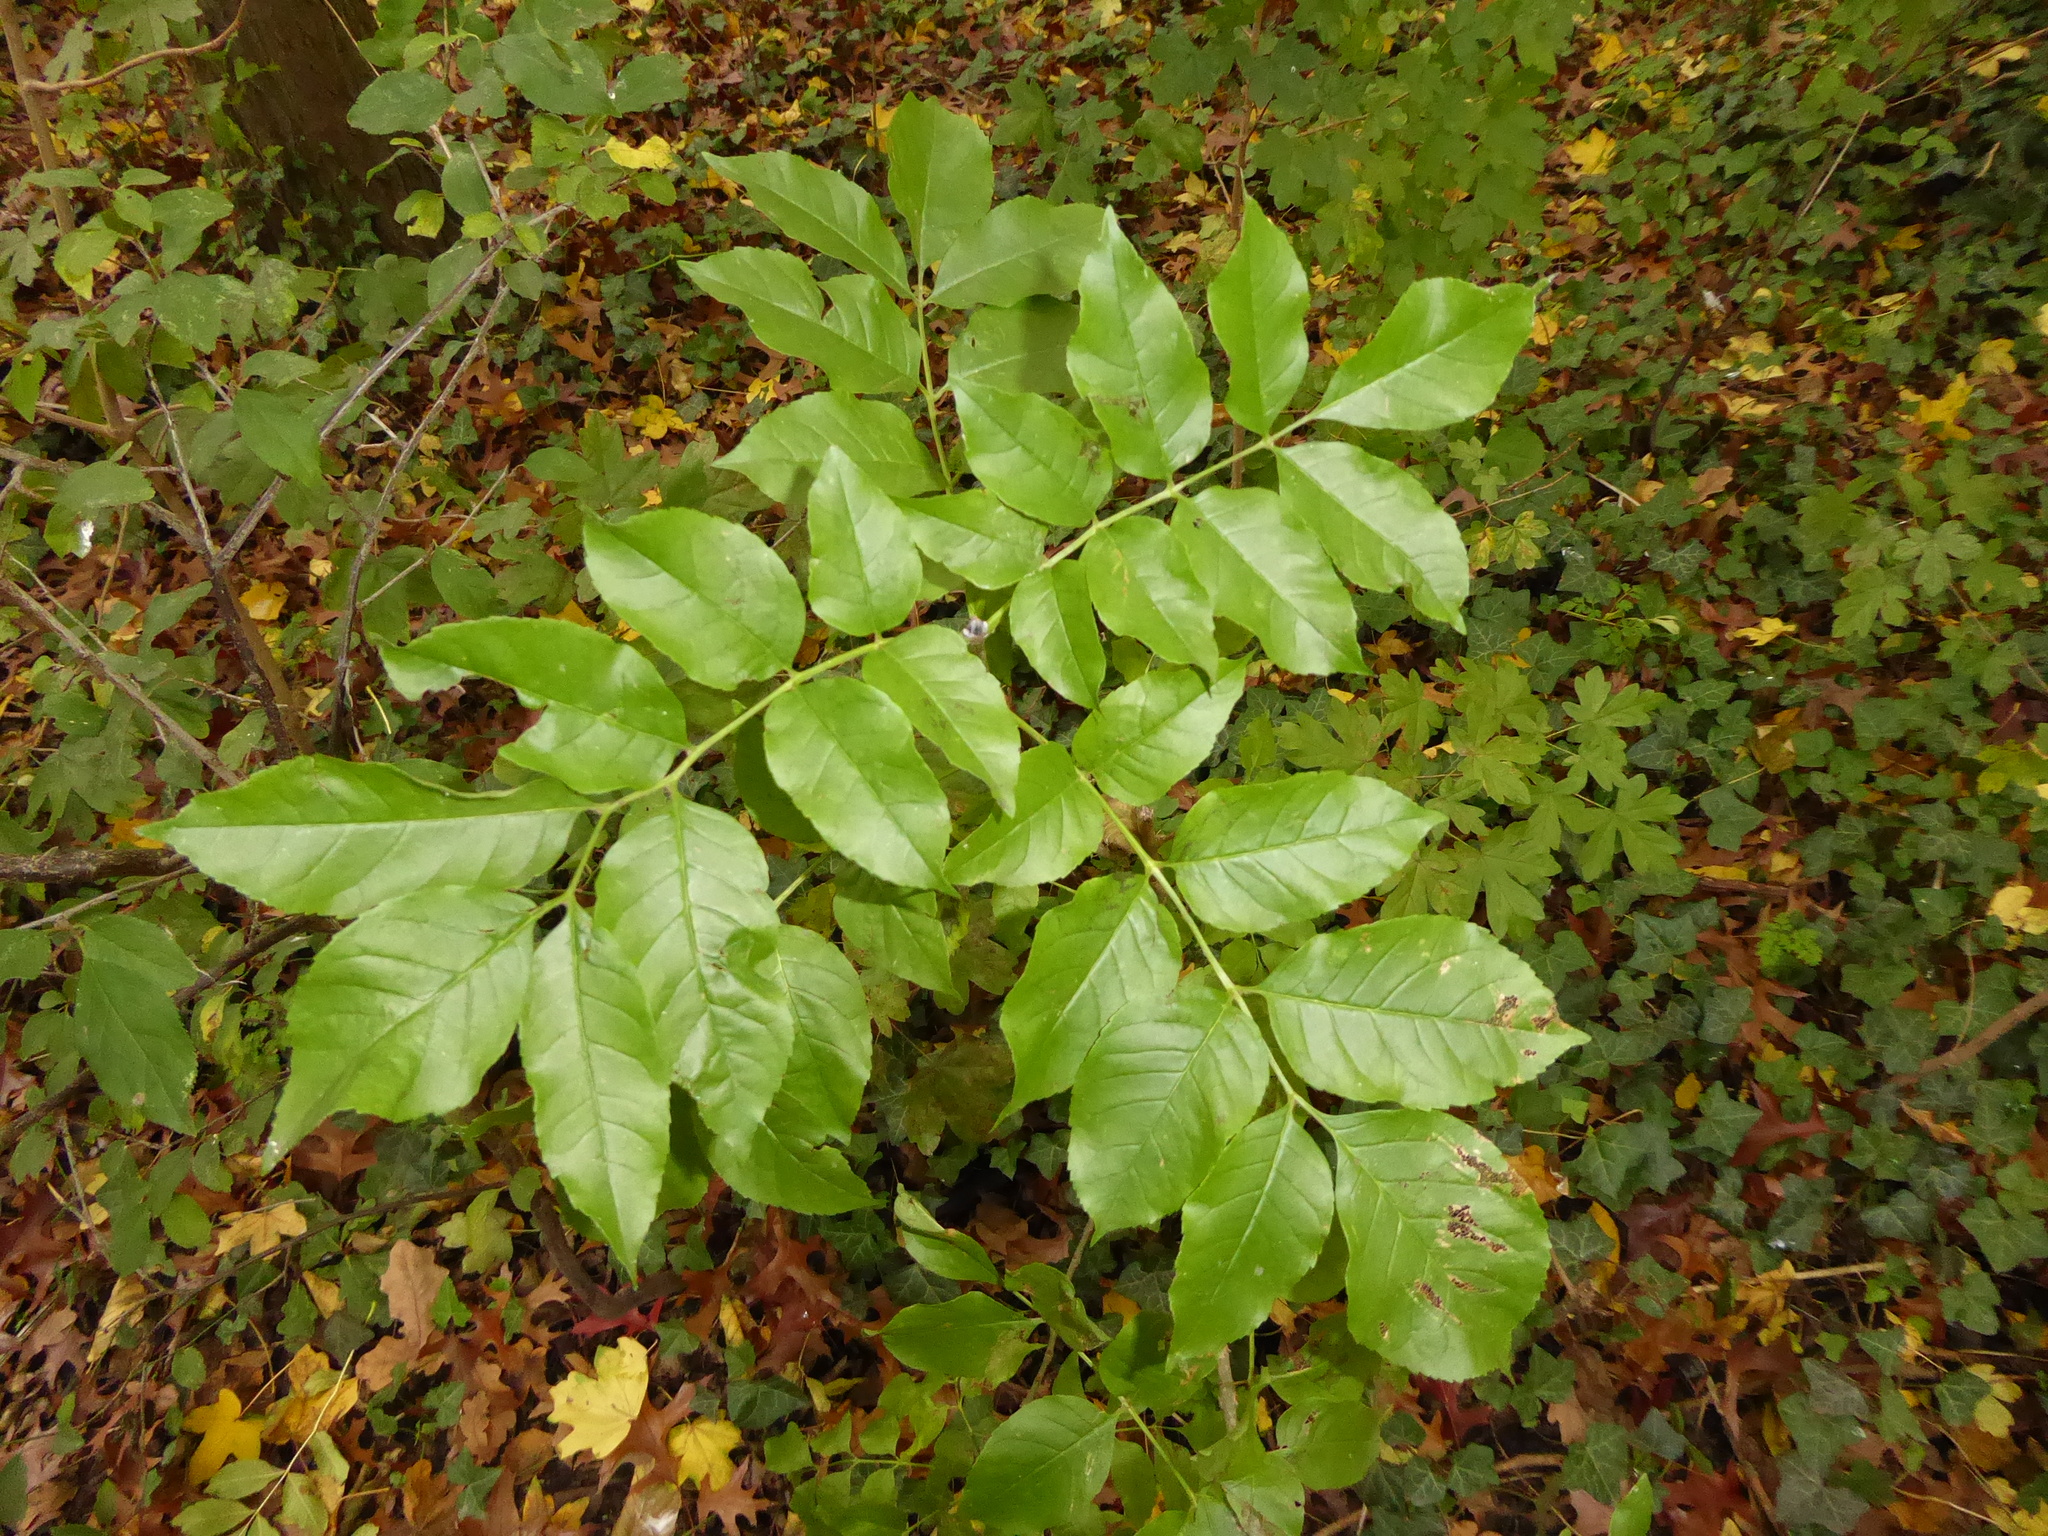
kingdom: Plantae
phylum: Tracheophyta
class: Magnoliopsida
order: Lamiales
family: Oleaceae
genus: Fraxinus
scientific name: Fraxinus excelsior
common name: European ash
